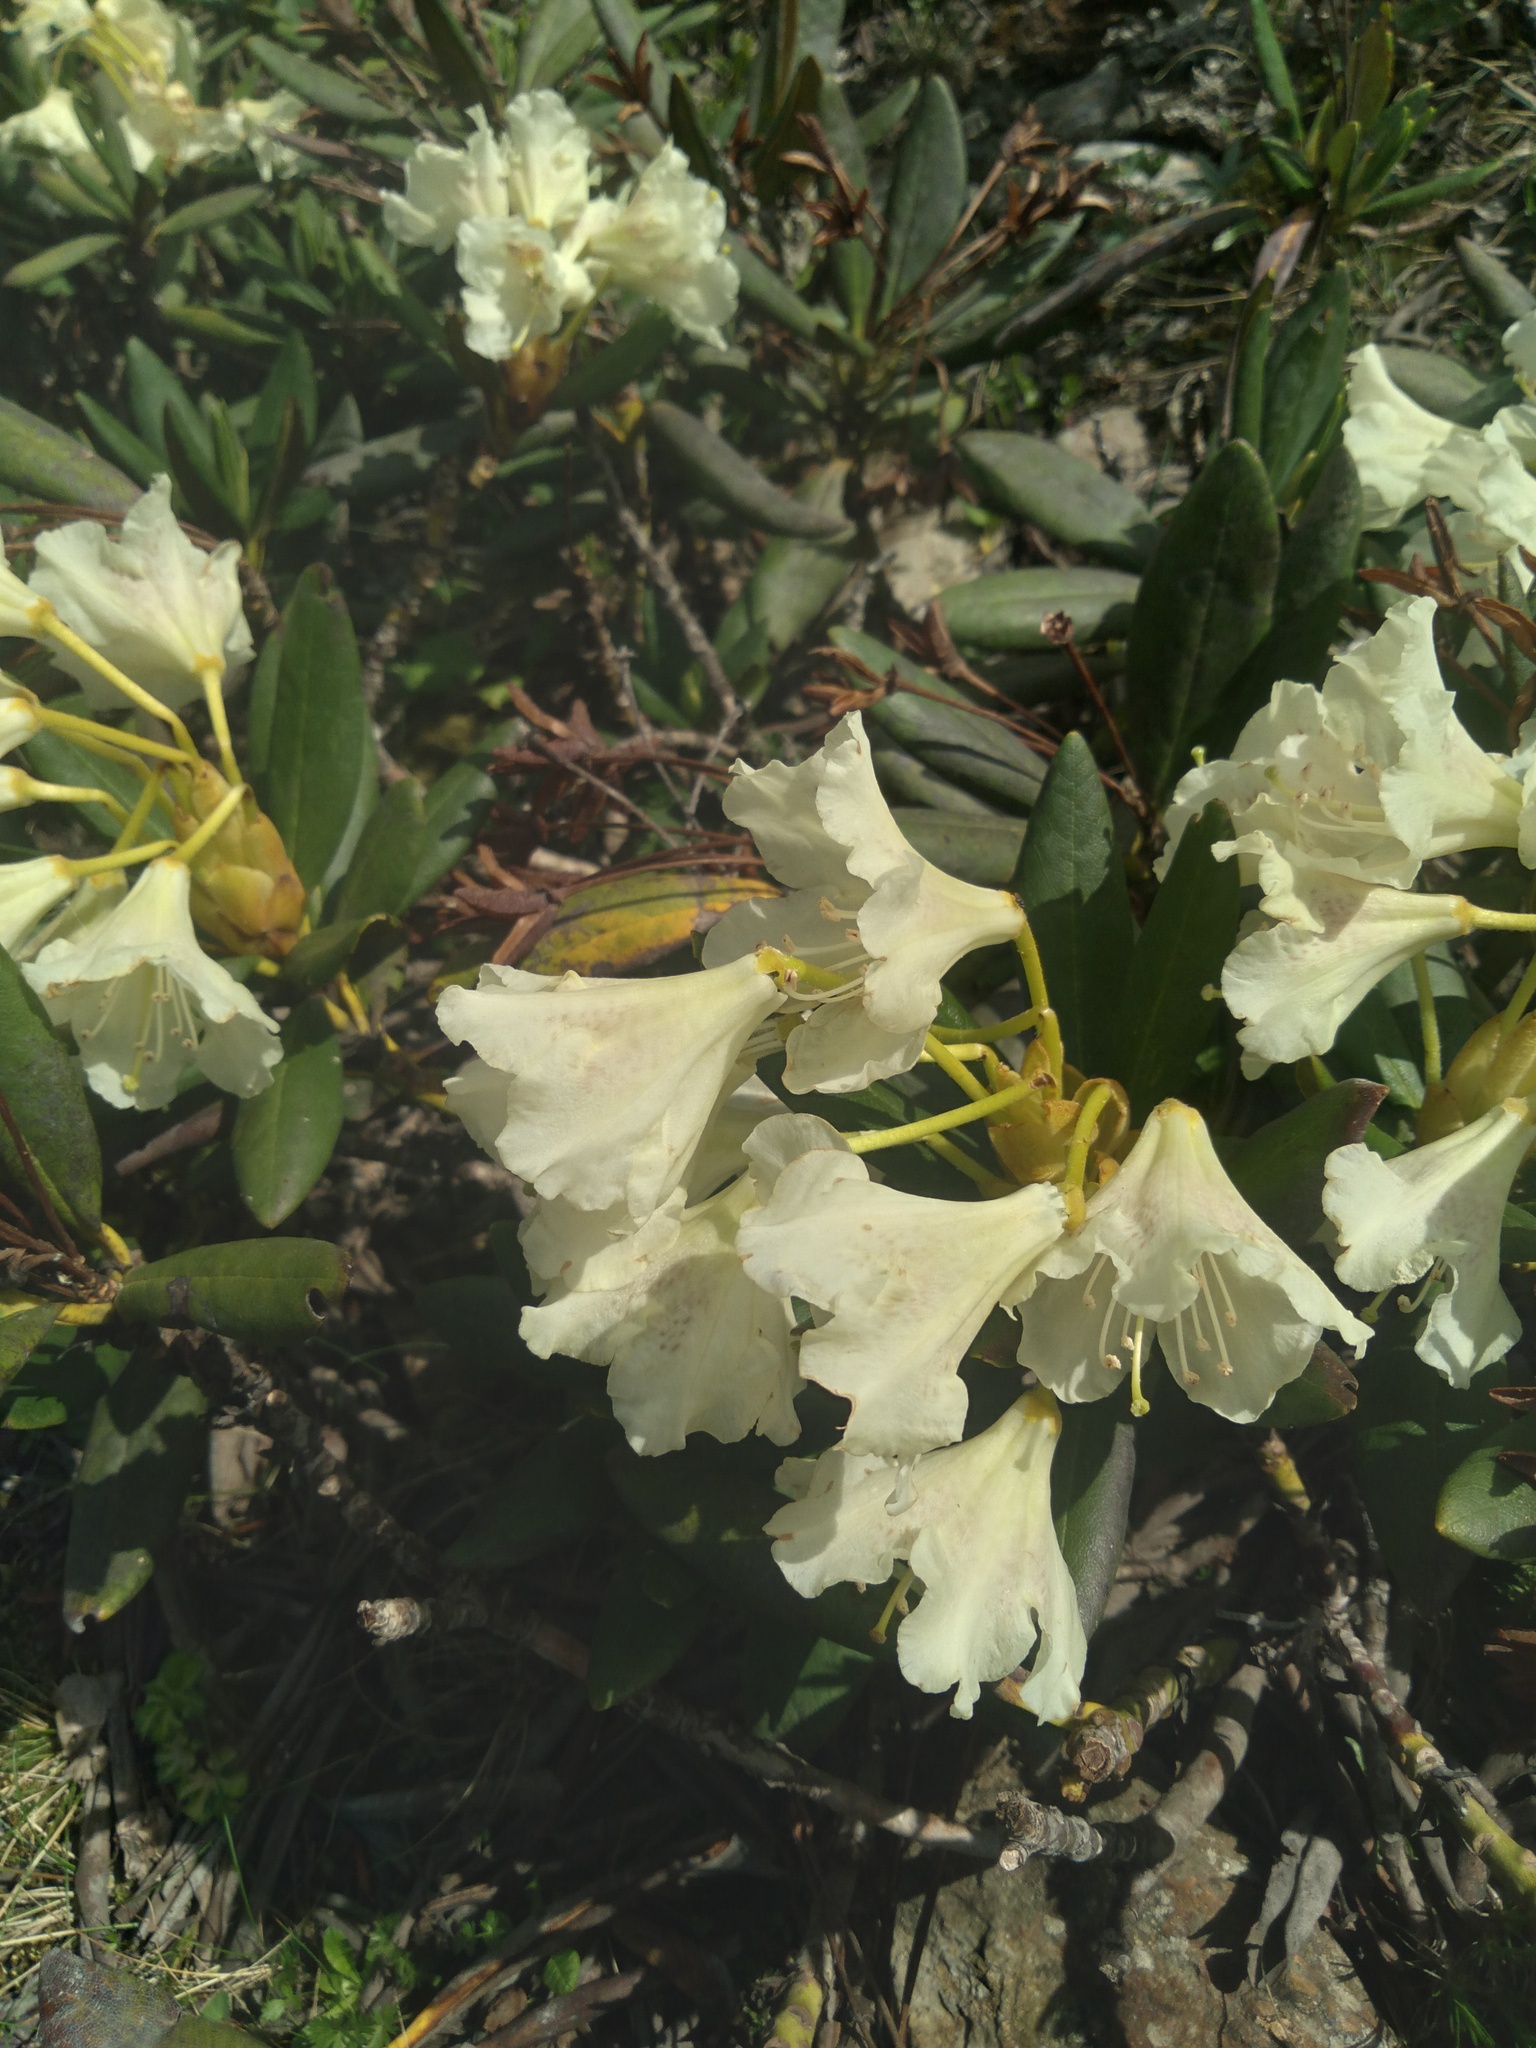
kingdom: Plantae
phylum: Tracheophyta
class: Magnoliopsida
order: Ericales
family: Ericaceae
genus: Rhododendron
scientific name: Rhododendron caucasicum
